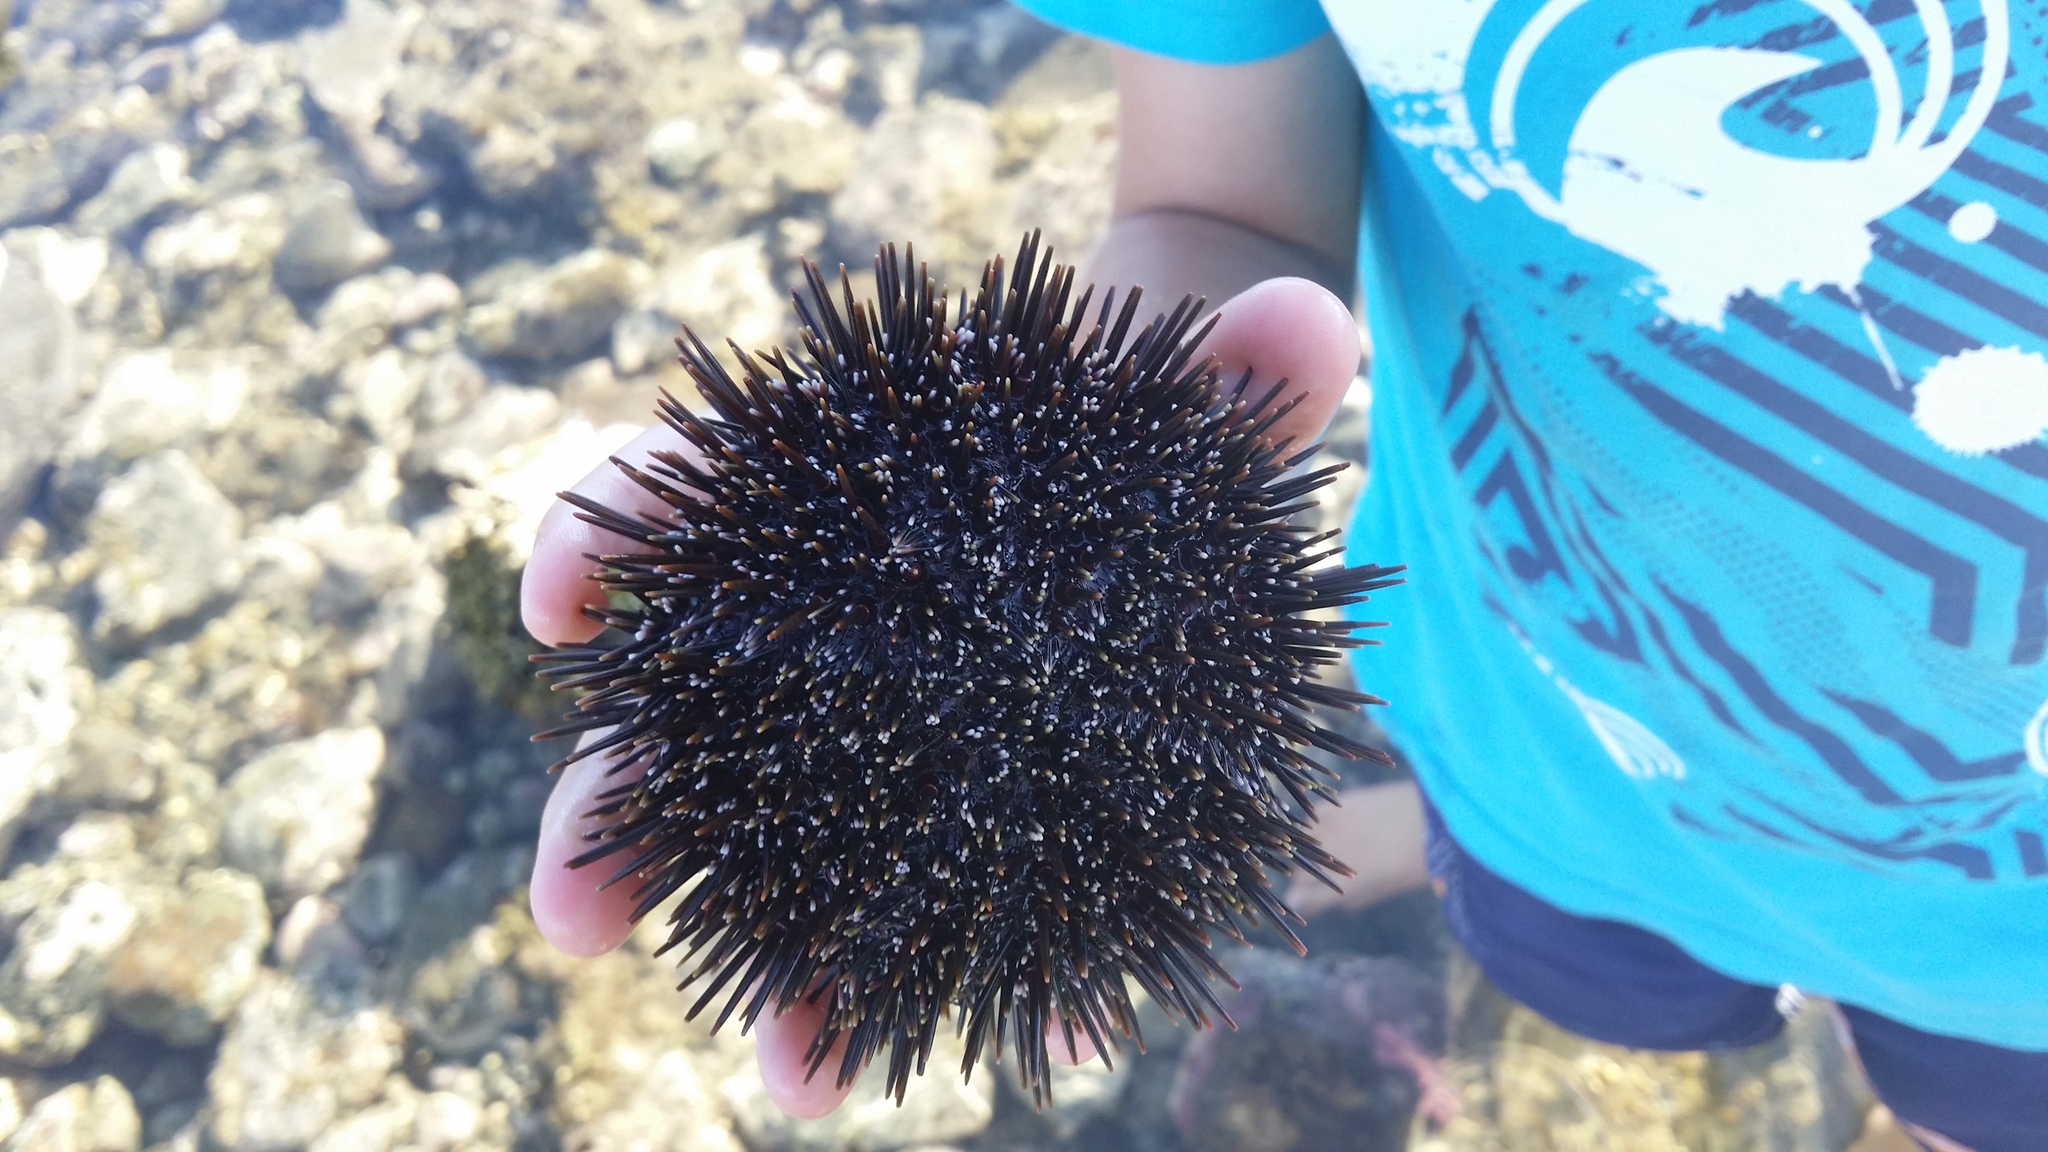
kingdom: Animalia
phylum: Echinodermata
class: Echinoidea
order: Camarodonta
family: Echinometridae
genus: Evechinus
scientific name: Evechinus chloroticus
